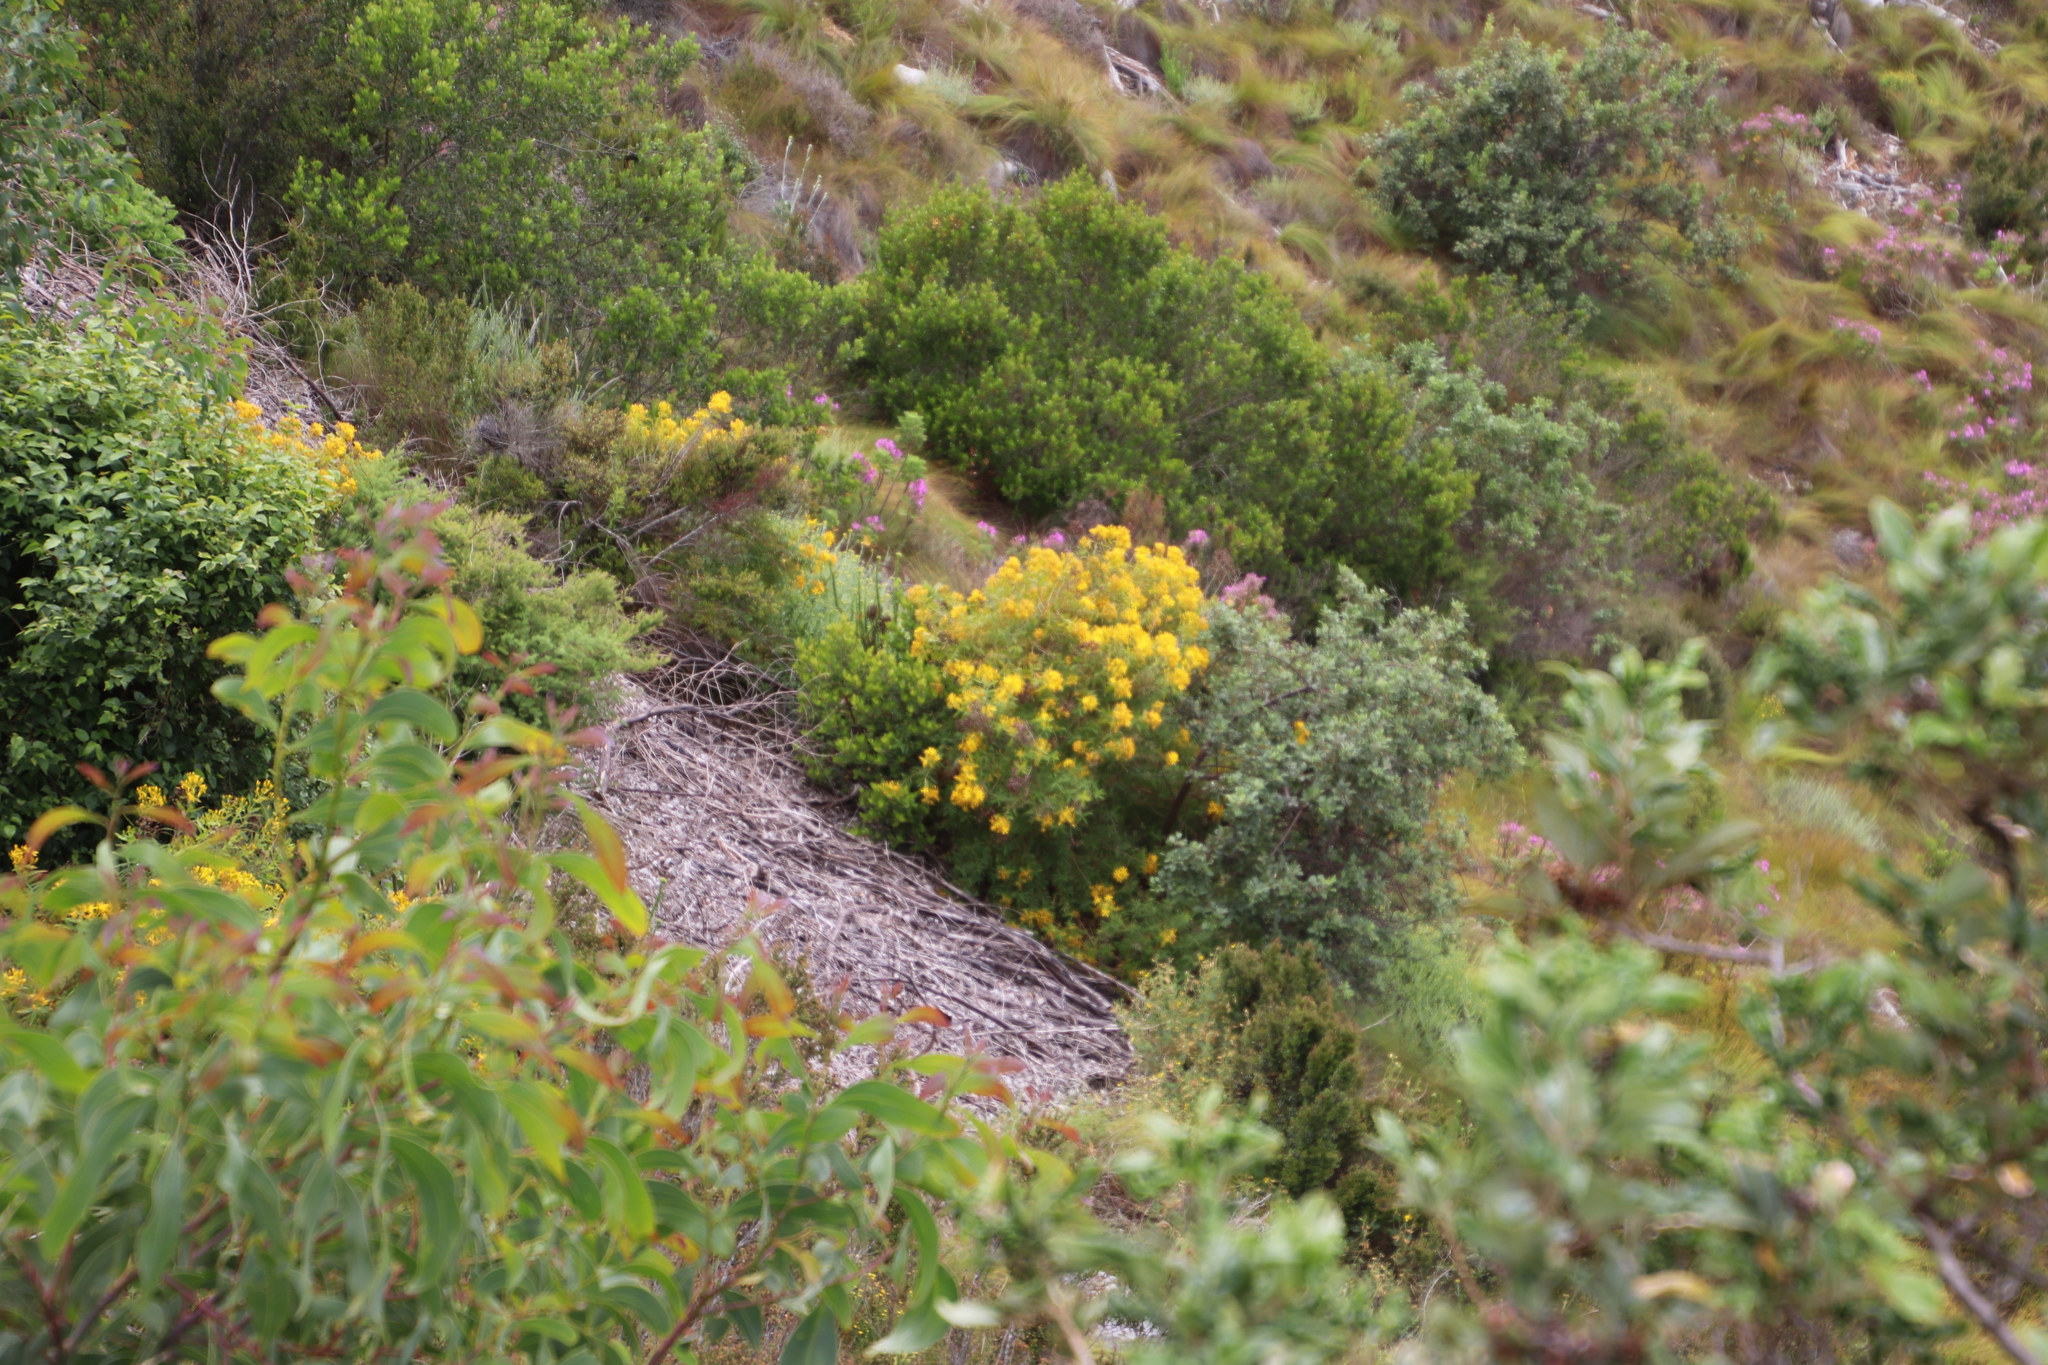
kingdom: Plantae
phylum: Tracheophyta
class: Magnoliopsida
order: Malpighiales
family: Hypericaceae
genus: Hypericum
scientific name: Hypericum canariense
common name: Canary island st. johnswort
